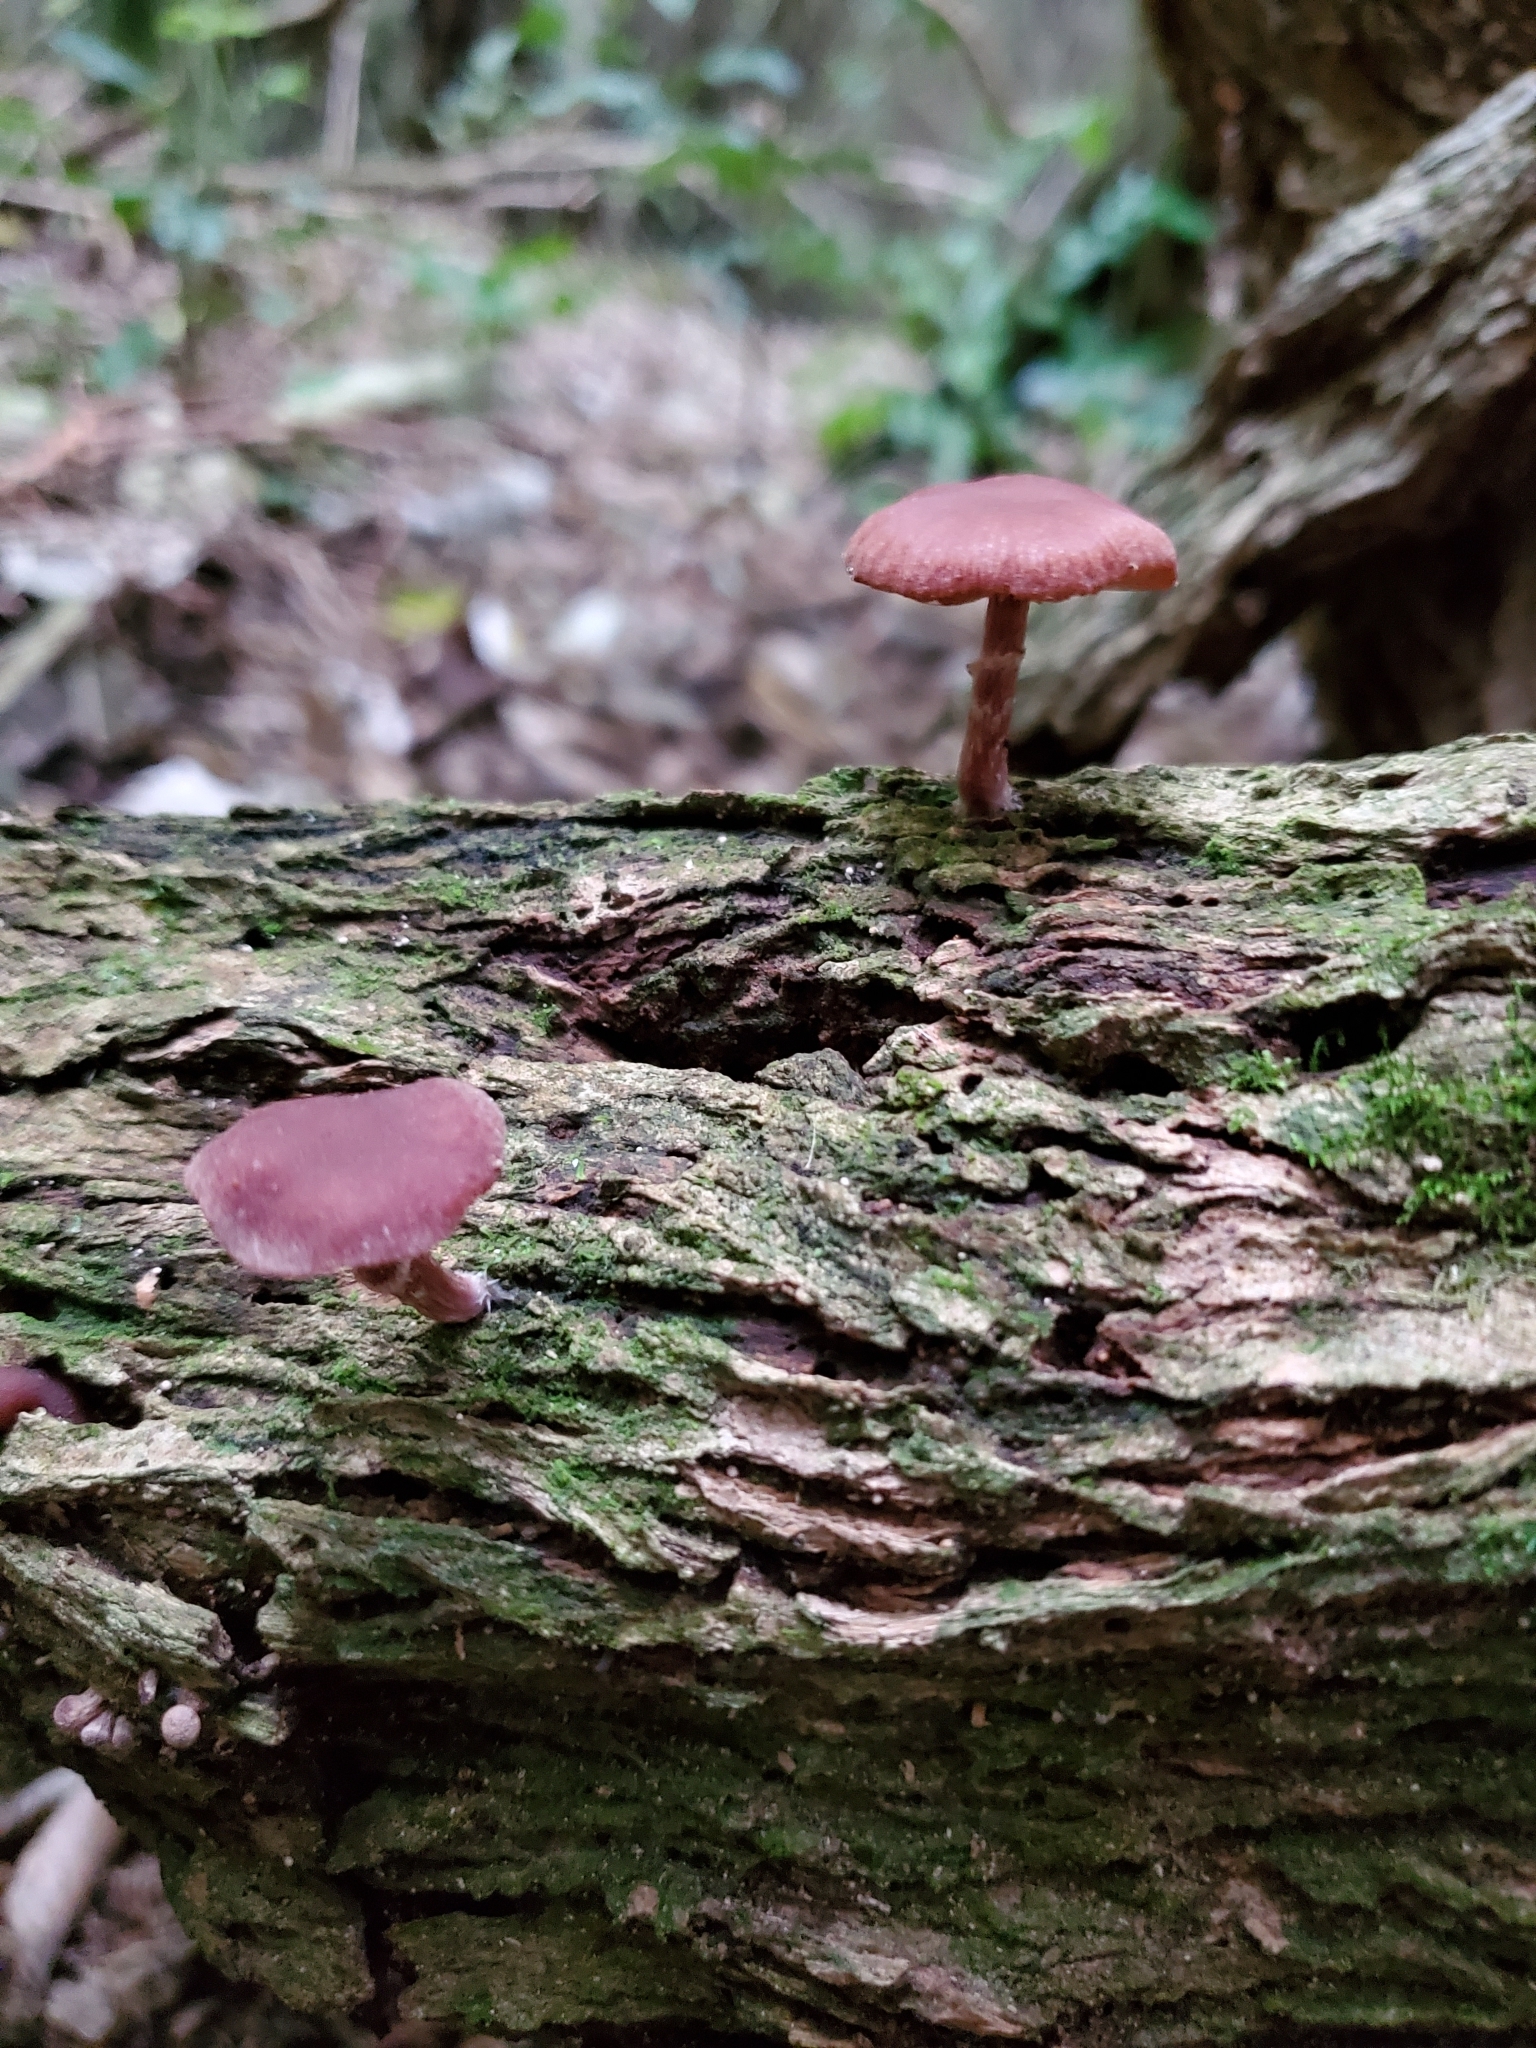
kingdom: Fungi
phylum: Basidiomycota
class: Agaricomycetes
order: Agaricales
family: Tubariaceae
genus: Tubaria
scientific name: Tubaria rufofulva
